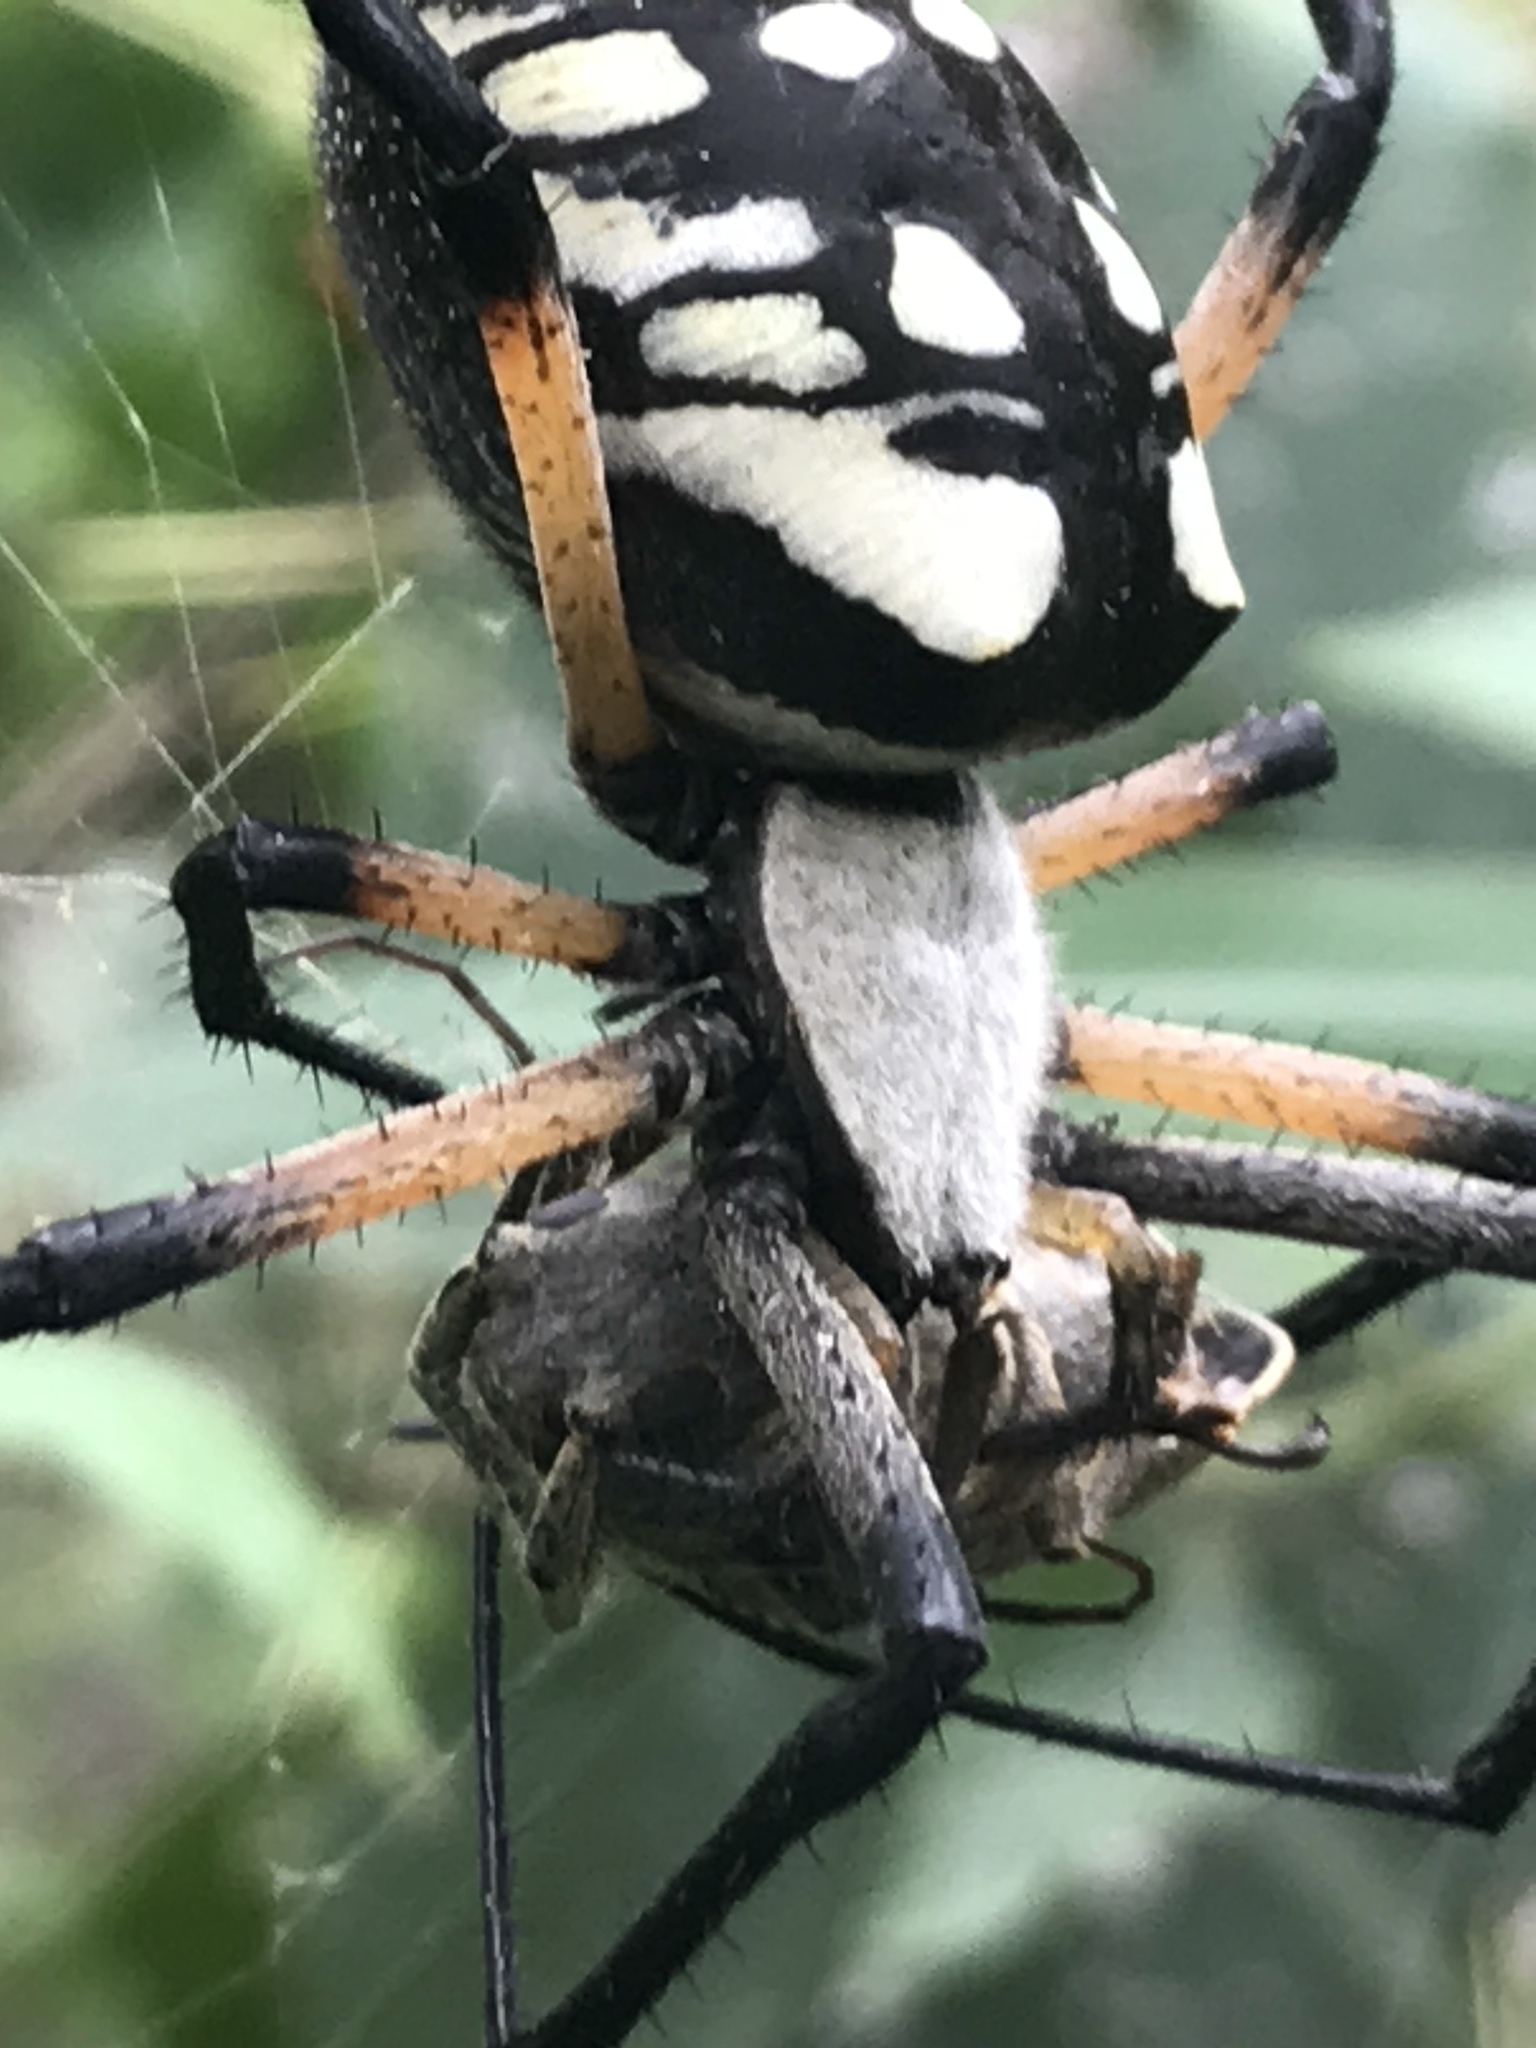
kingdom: Animalia
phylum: Arthropoda
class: Arachnida
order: Araneae
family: Araneidae
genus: Argiope
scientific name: Argiope aurantia
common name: Orb weavers
